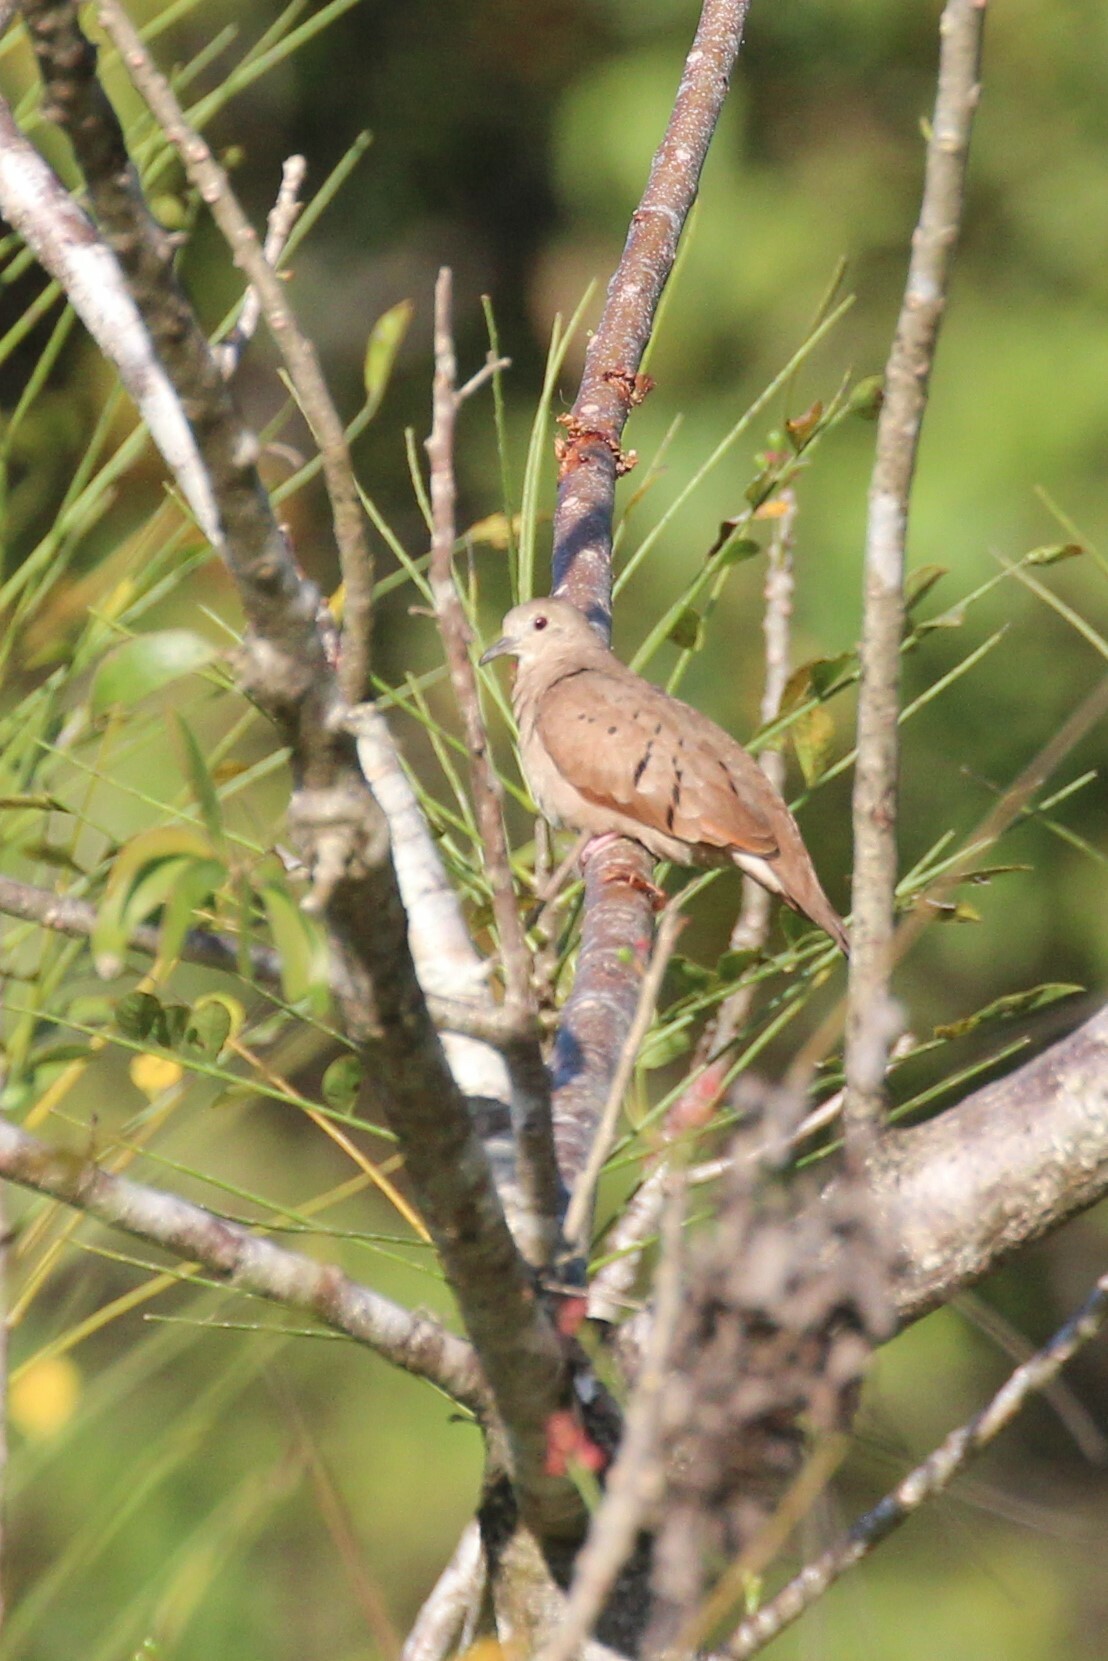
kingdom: Animalia
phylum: Chordata
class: Aves
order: Columbiformes
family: Columbidae
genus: Columbina
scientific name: Columbina talpacoti
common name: Ruddy ground dove
